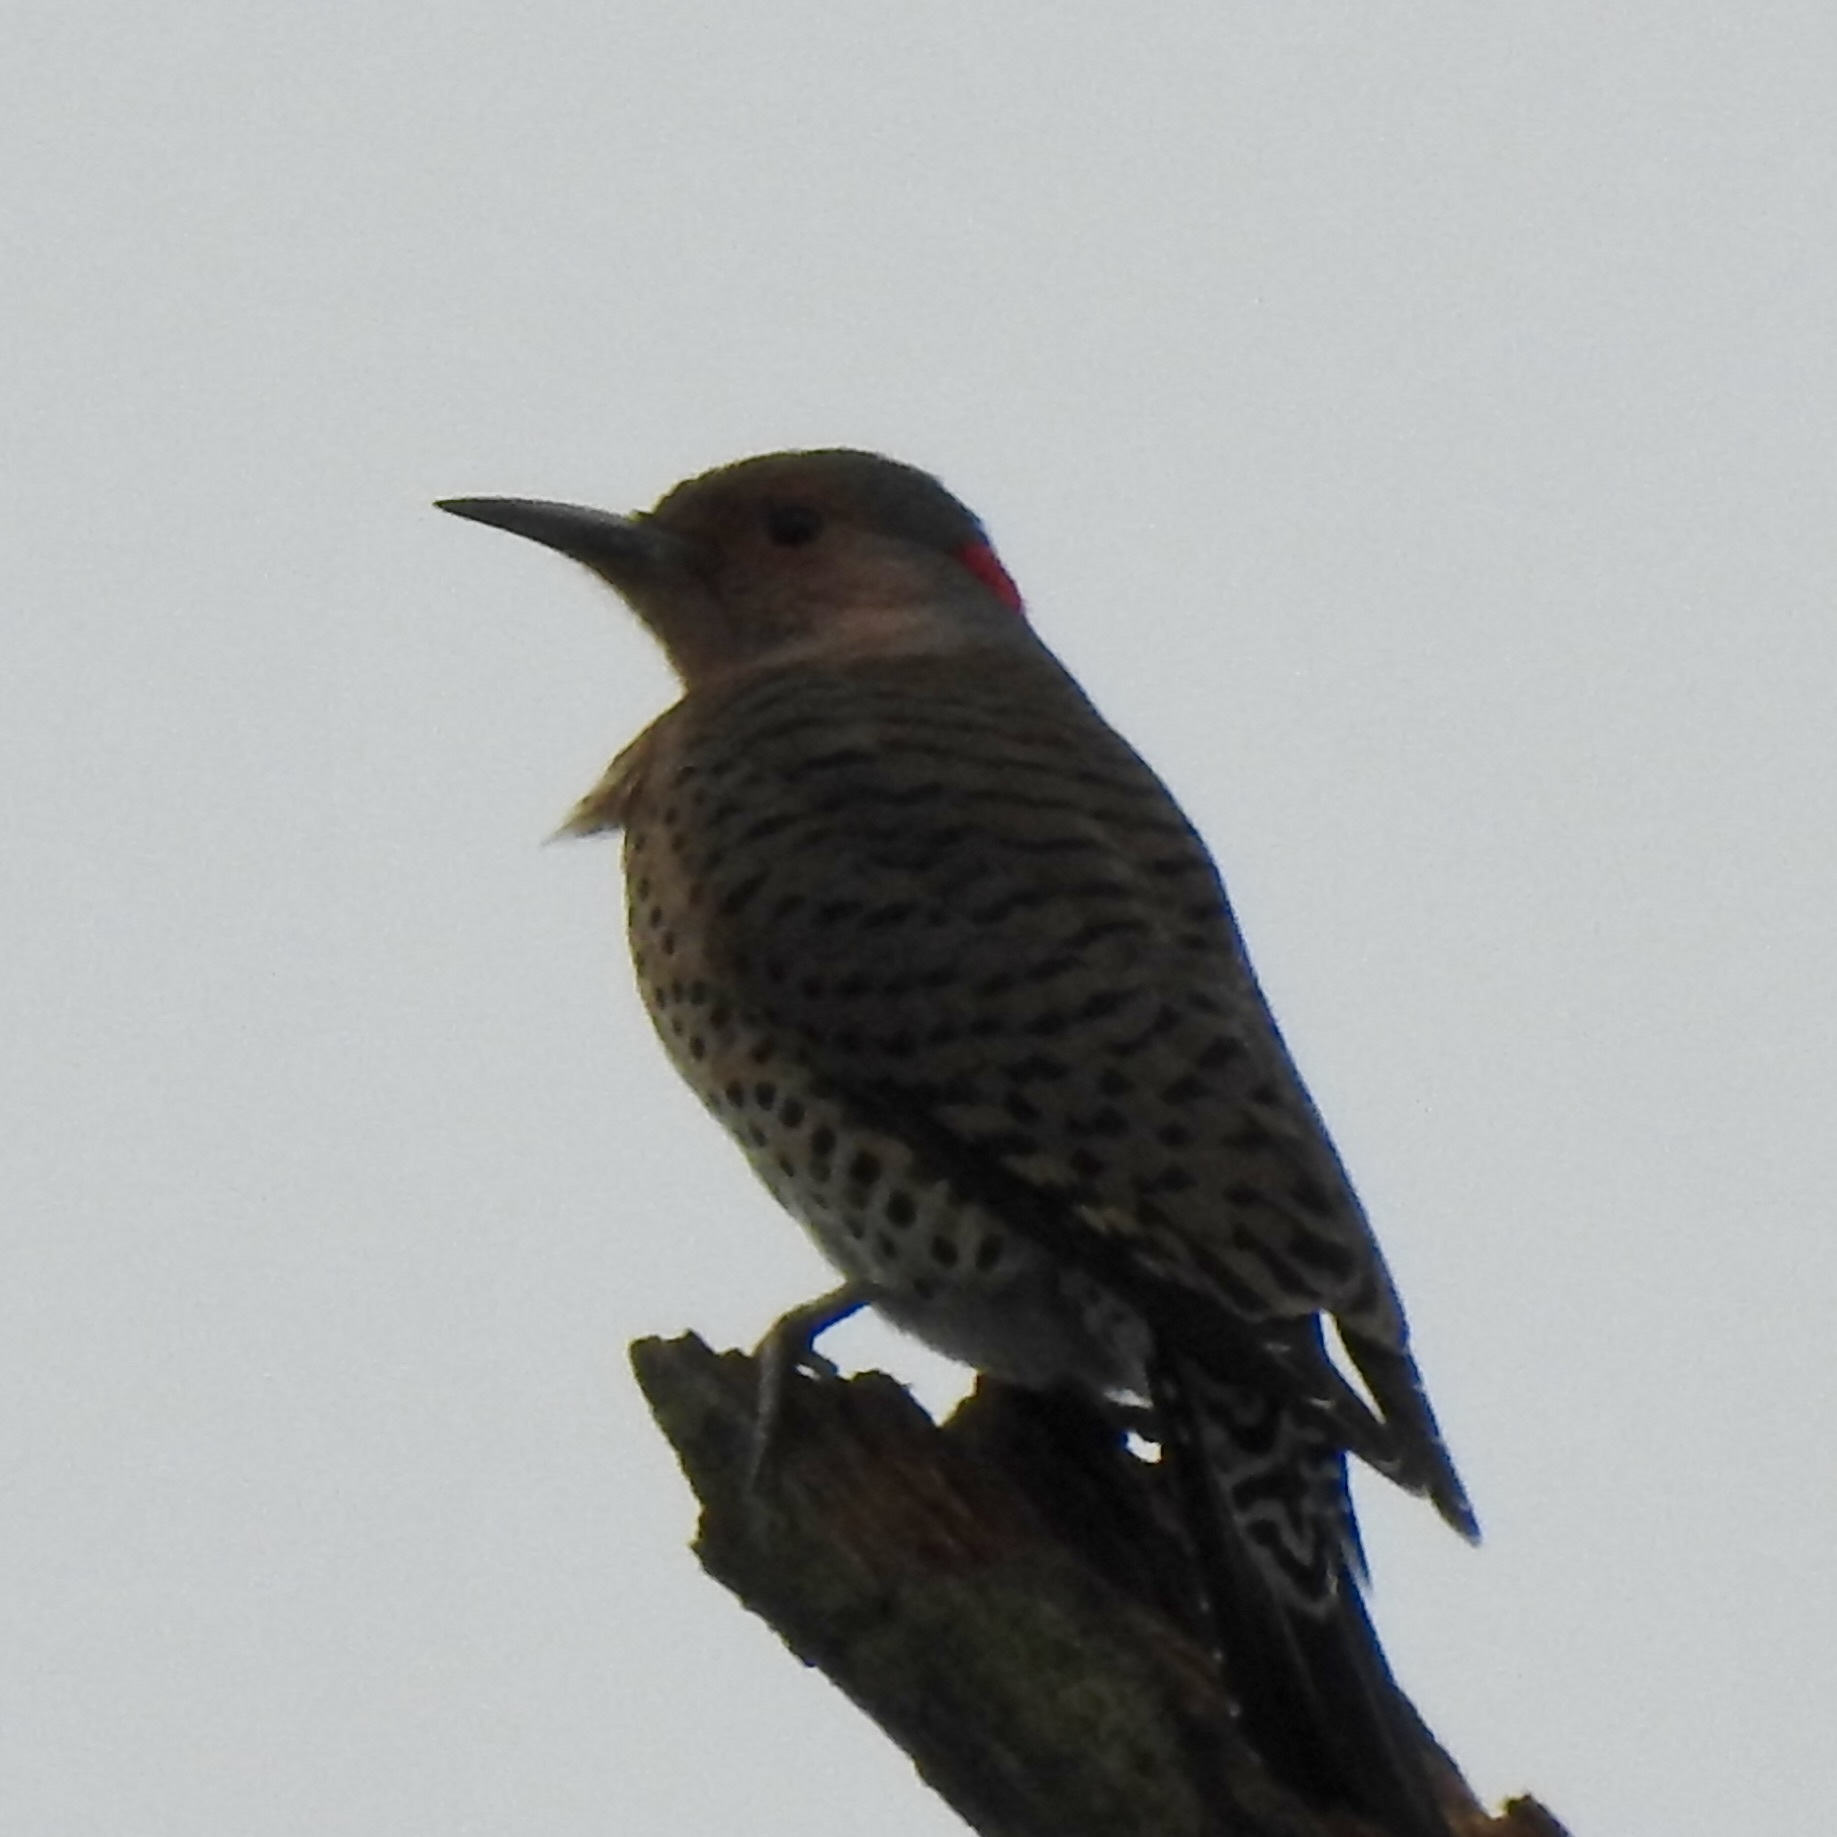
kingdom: Animalia
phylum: Chordata
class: Aves
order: Piciformes
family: Picidae
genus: Colaptes
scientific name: Colaptes auratus
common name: Northern flicker
